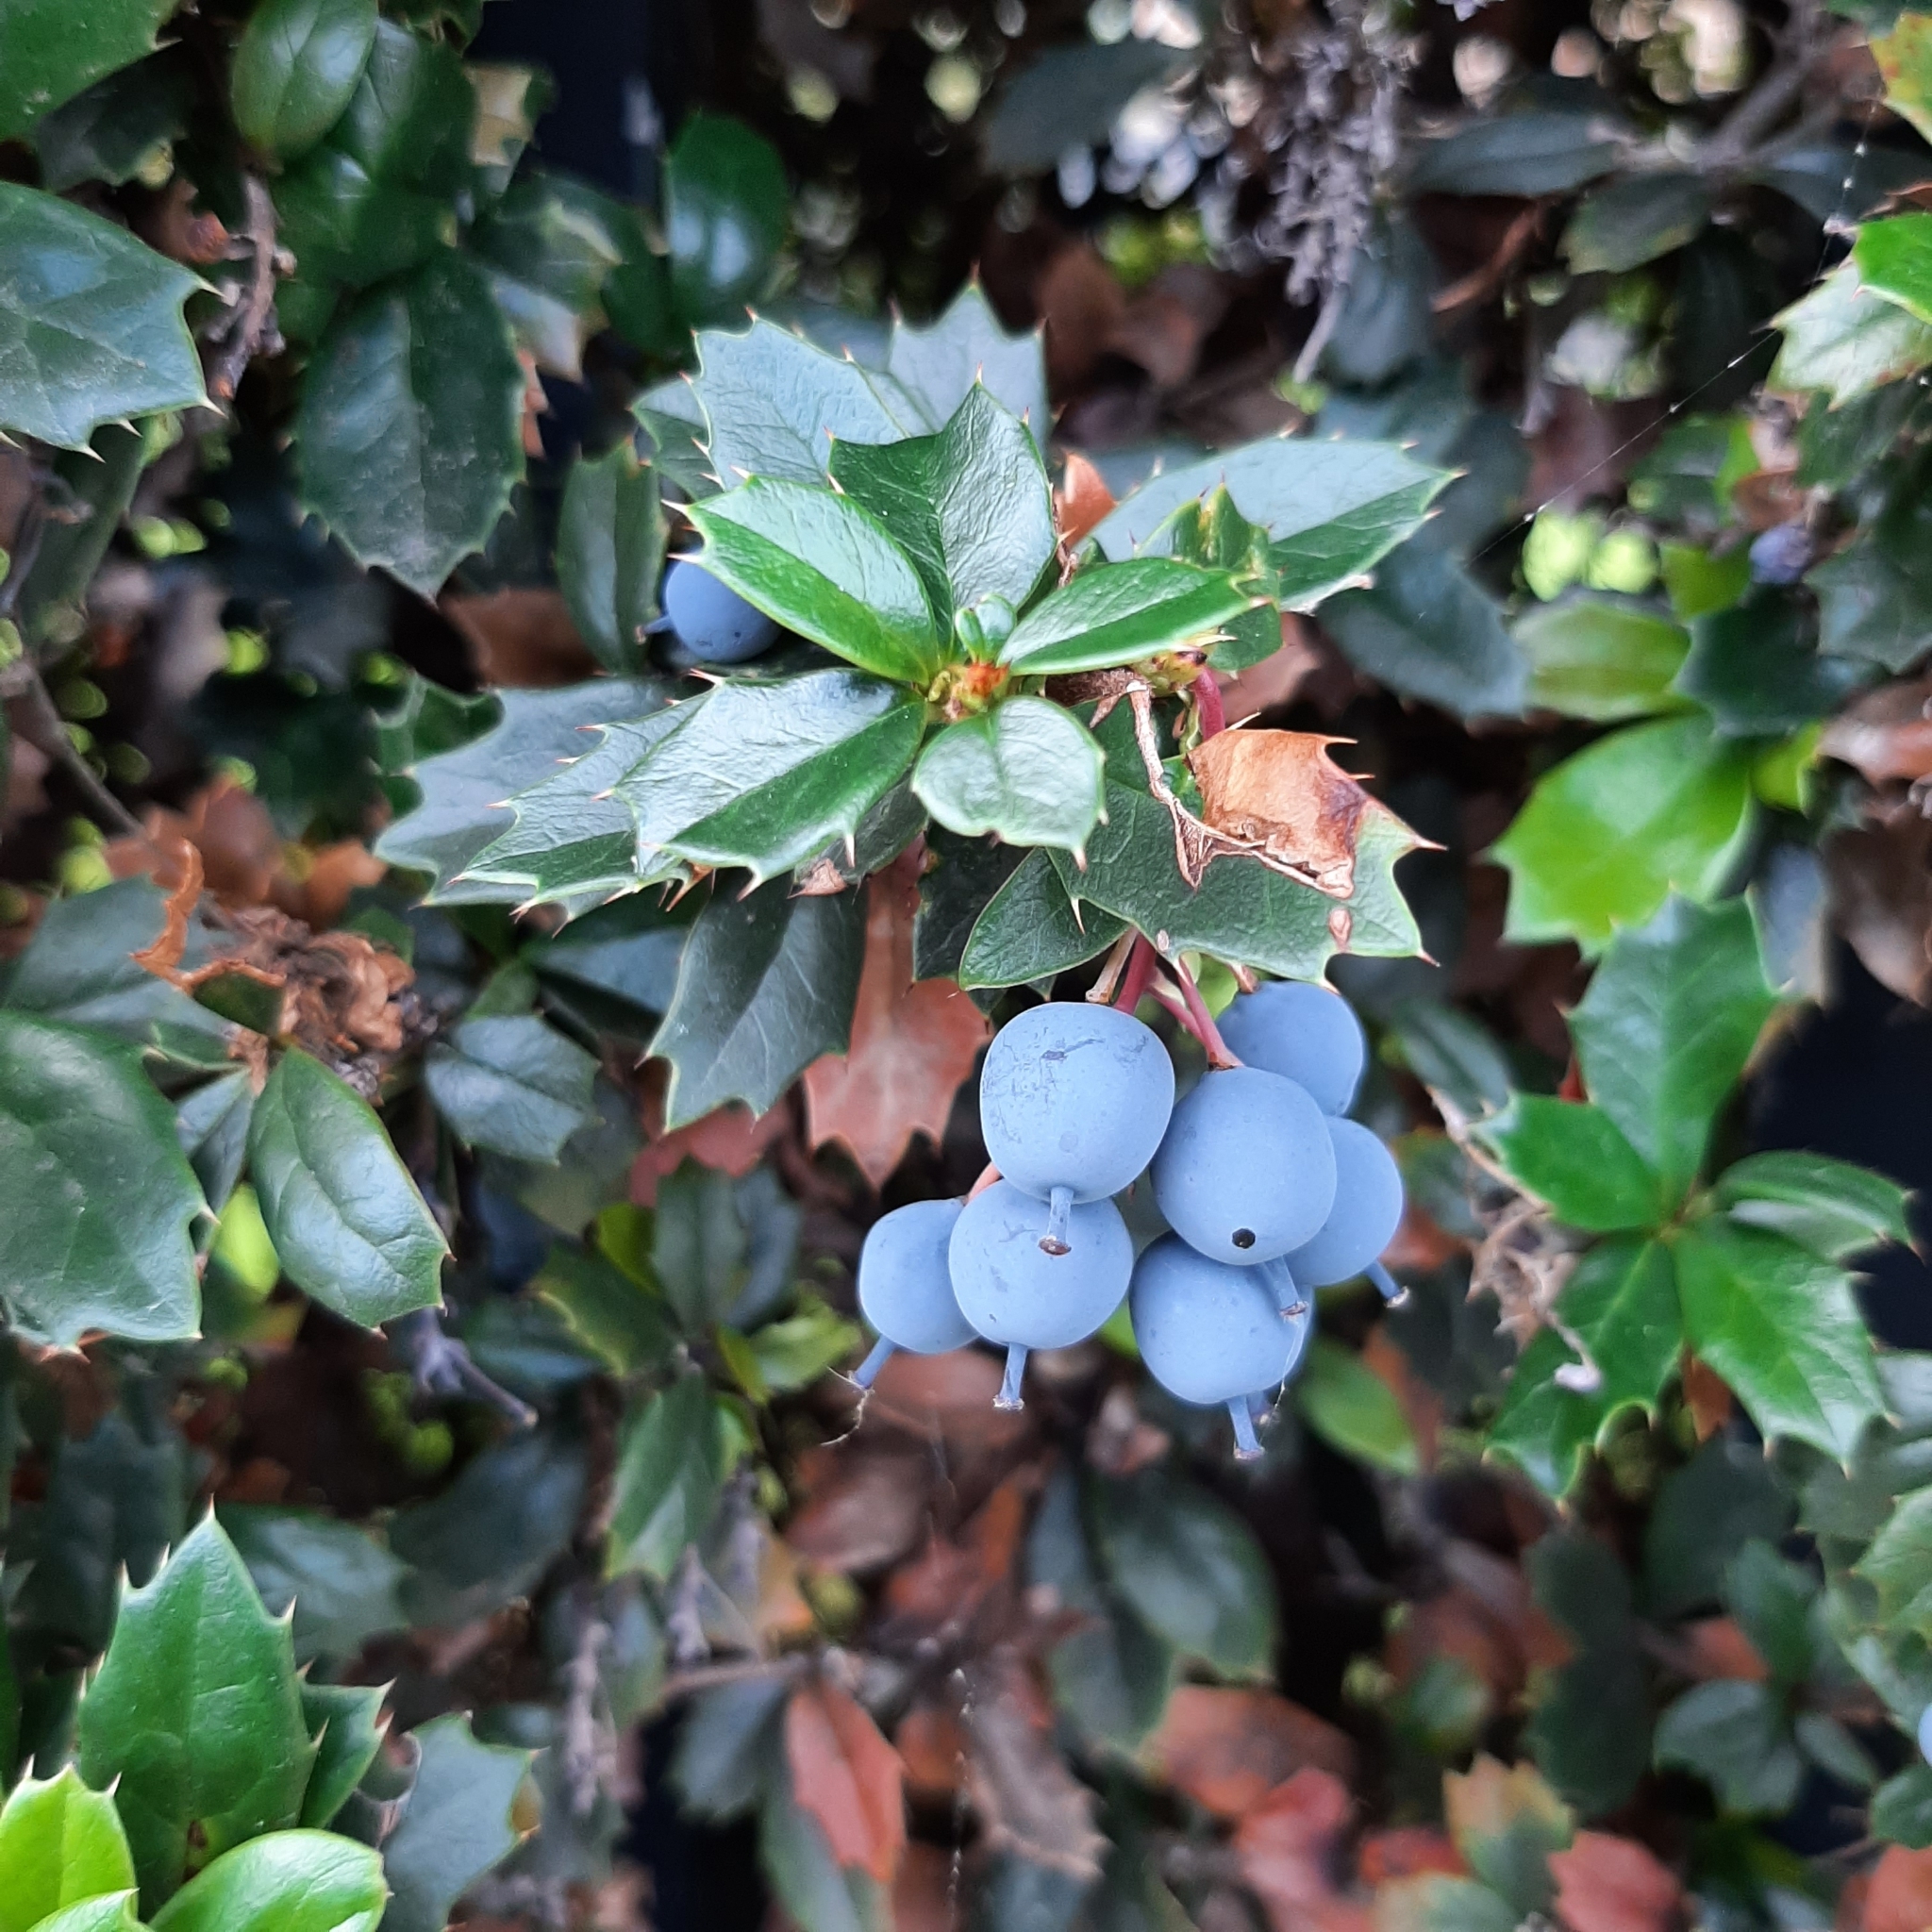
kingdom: Plantae
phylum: Tracheophyta
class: Magnoliopsida
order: Ranunculales
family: Berberidaceae
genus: Berberis
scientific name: Berberis darwinii
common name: Darwin's barberry
